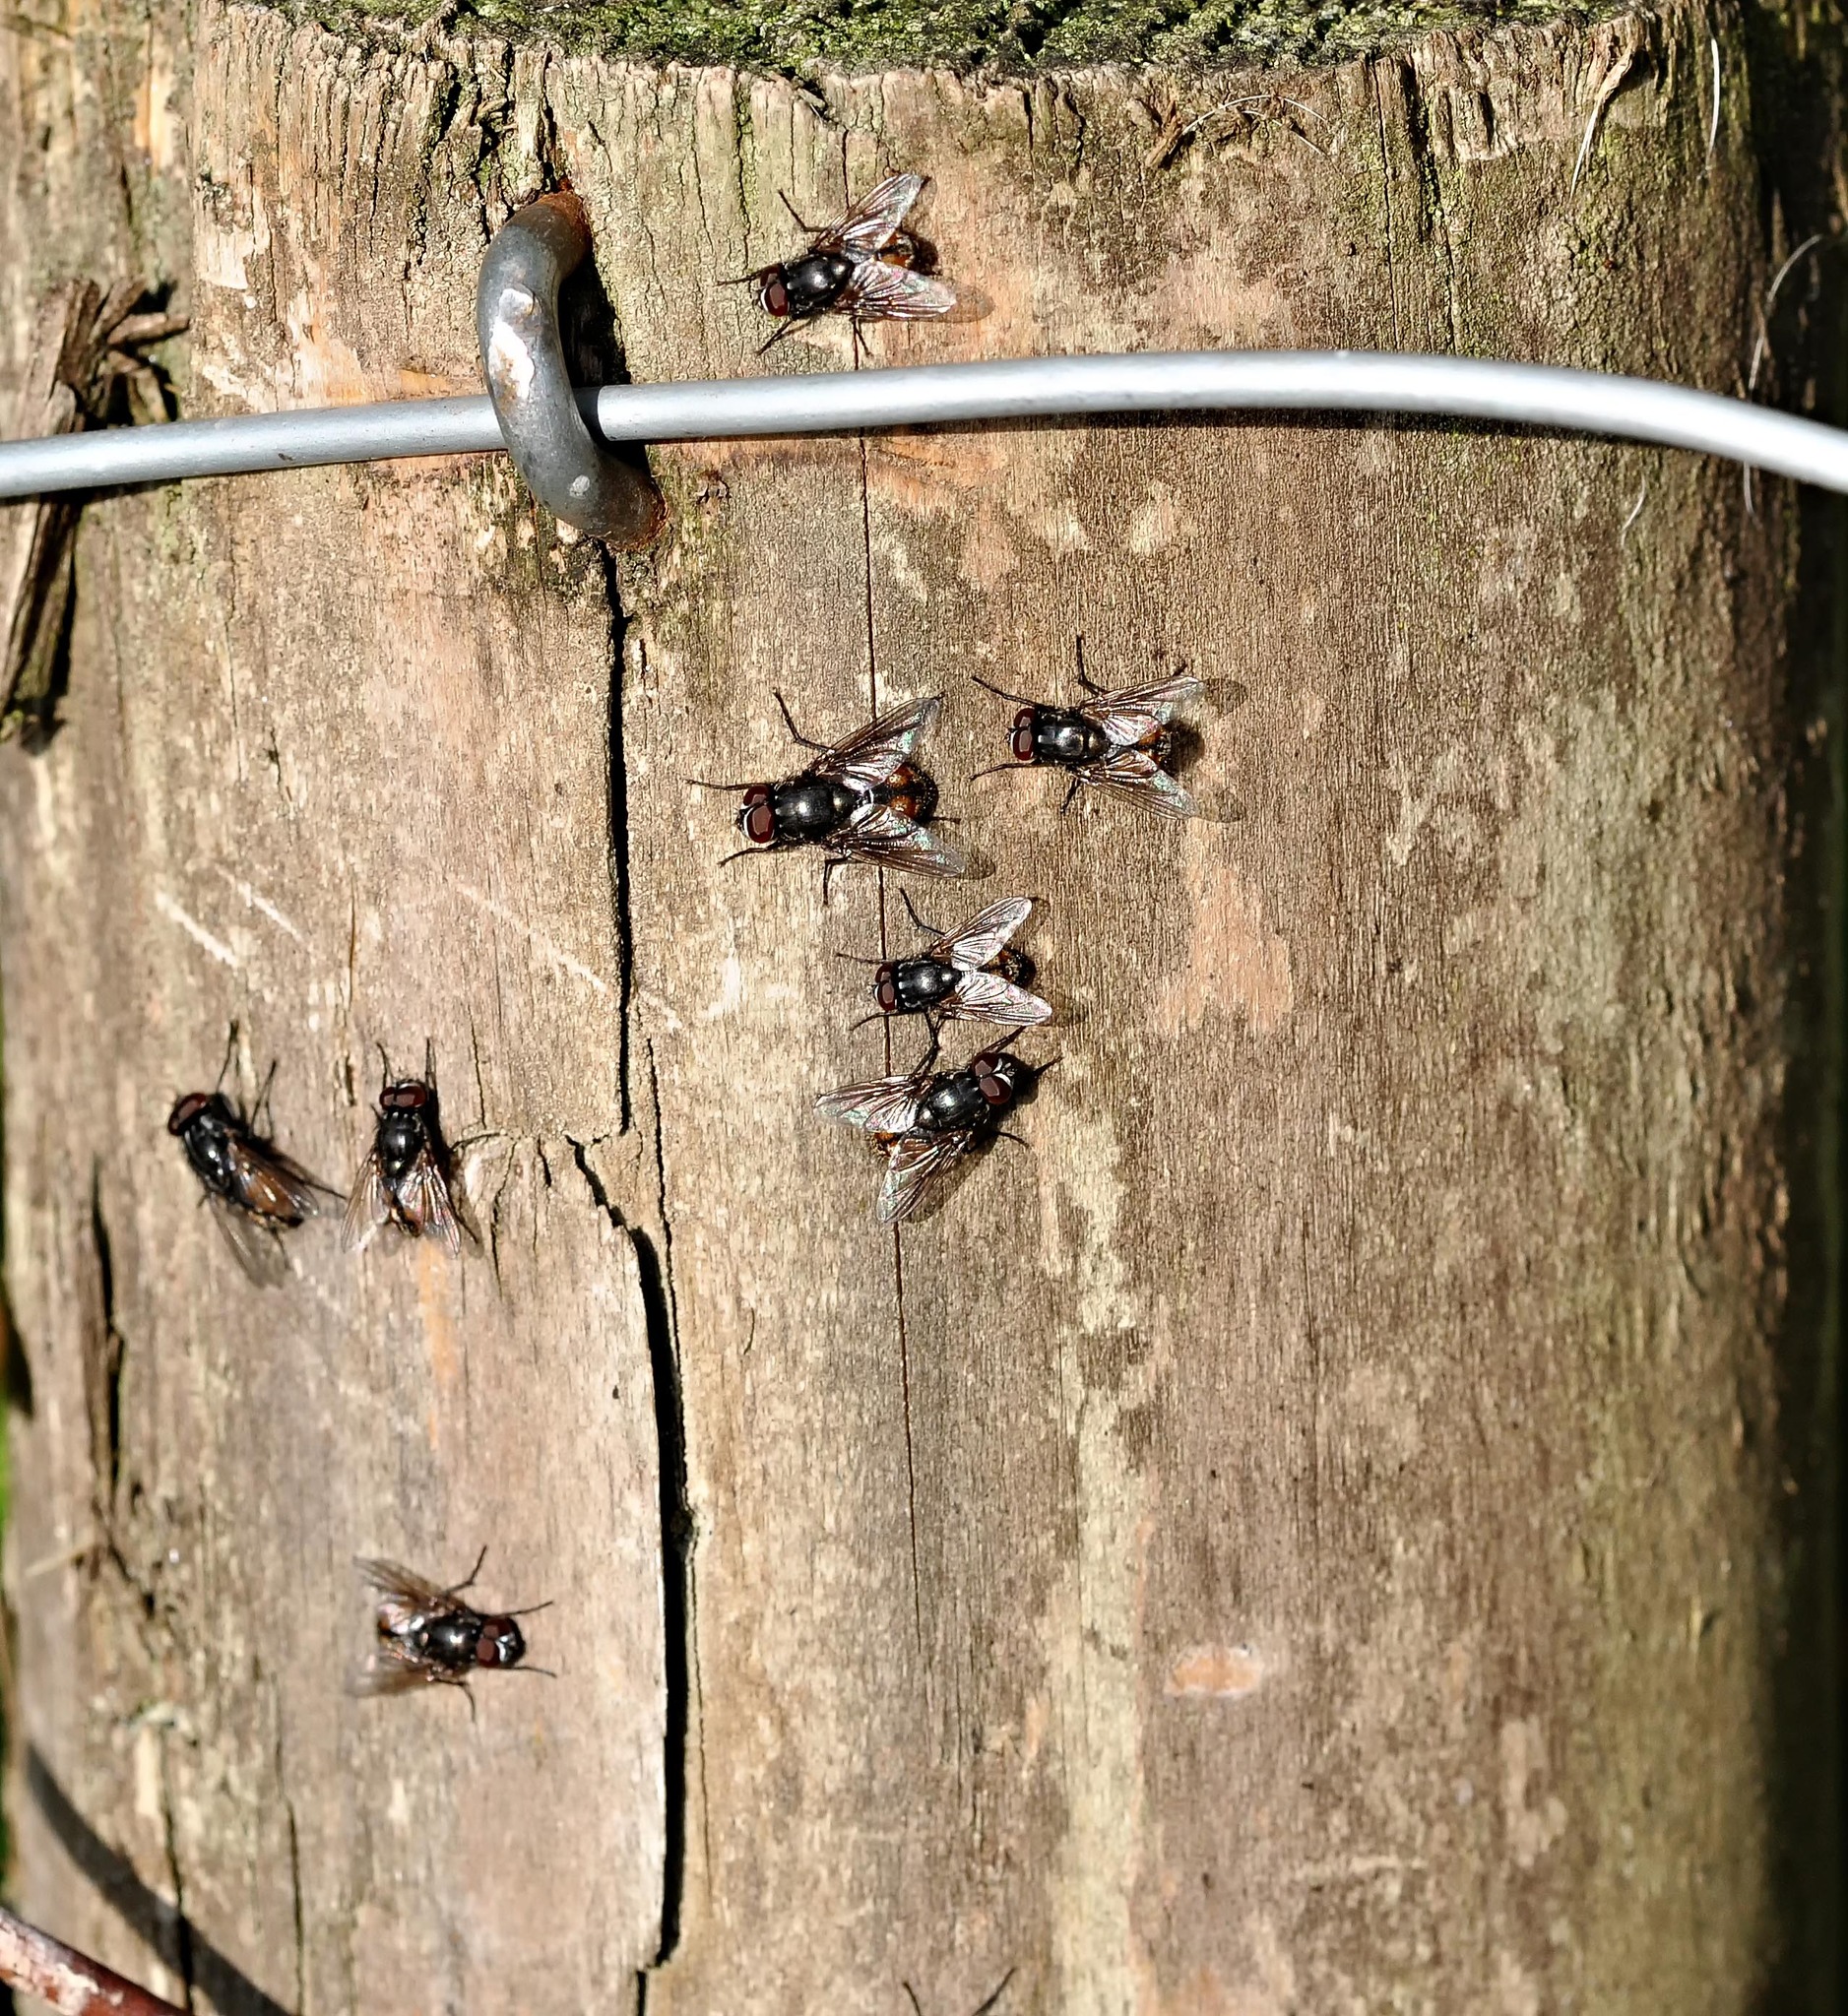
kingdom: Animalia
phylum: Arthropoda
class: Insecta
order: Diptera
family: Muscidae
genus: Musca
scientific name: Musca autumnalis
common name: Face fly
